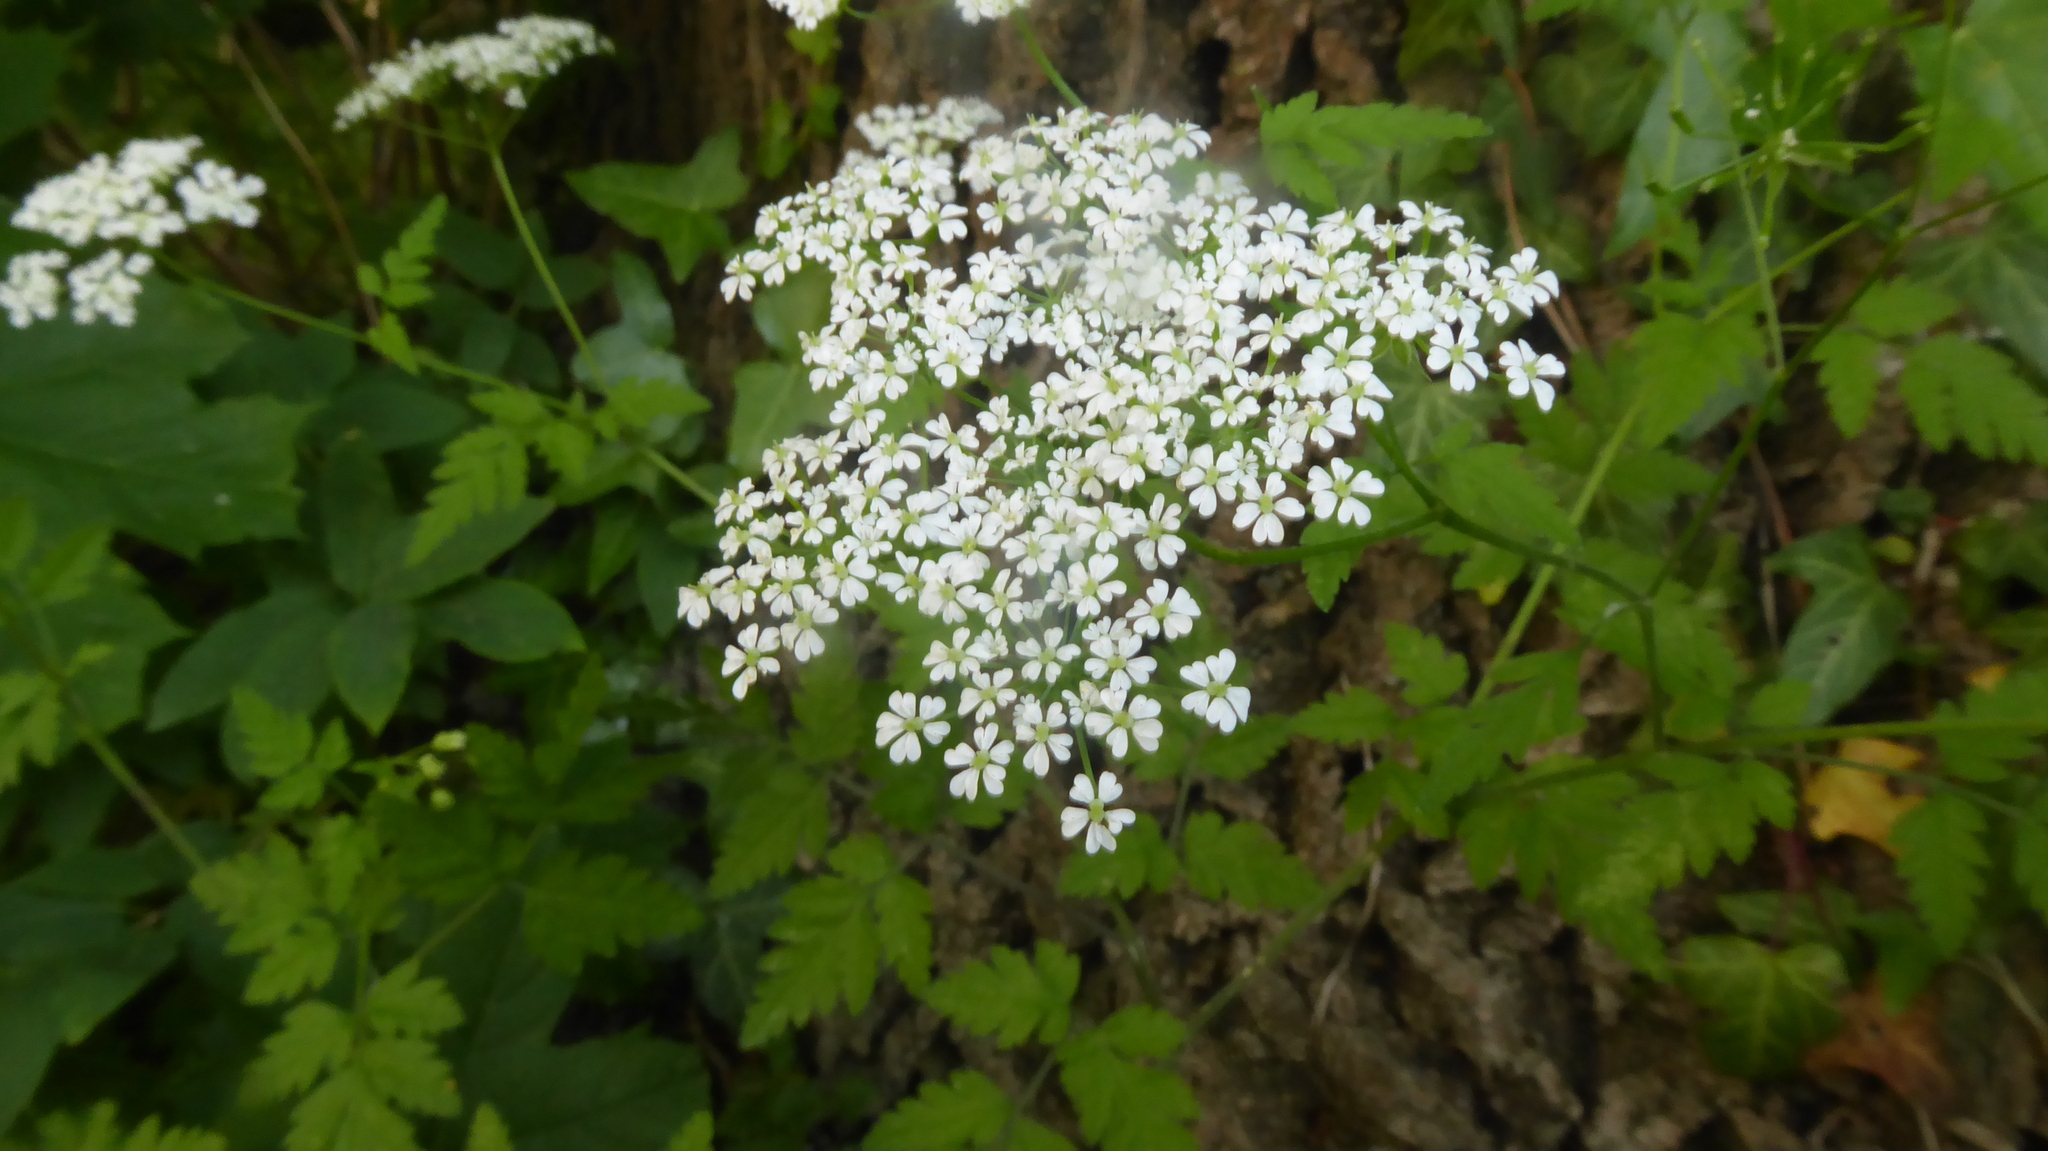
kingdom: Plantae
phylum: Tracheophyta
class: Magnoliopsida
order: Apiales
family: Apiaceae
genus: Chaerophyllum
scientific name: Chaerophyllum temulum
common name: Rough chervil
